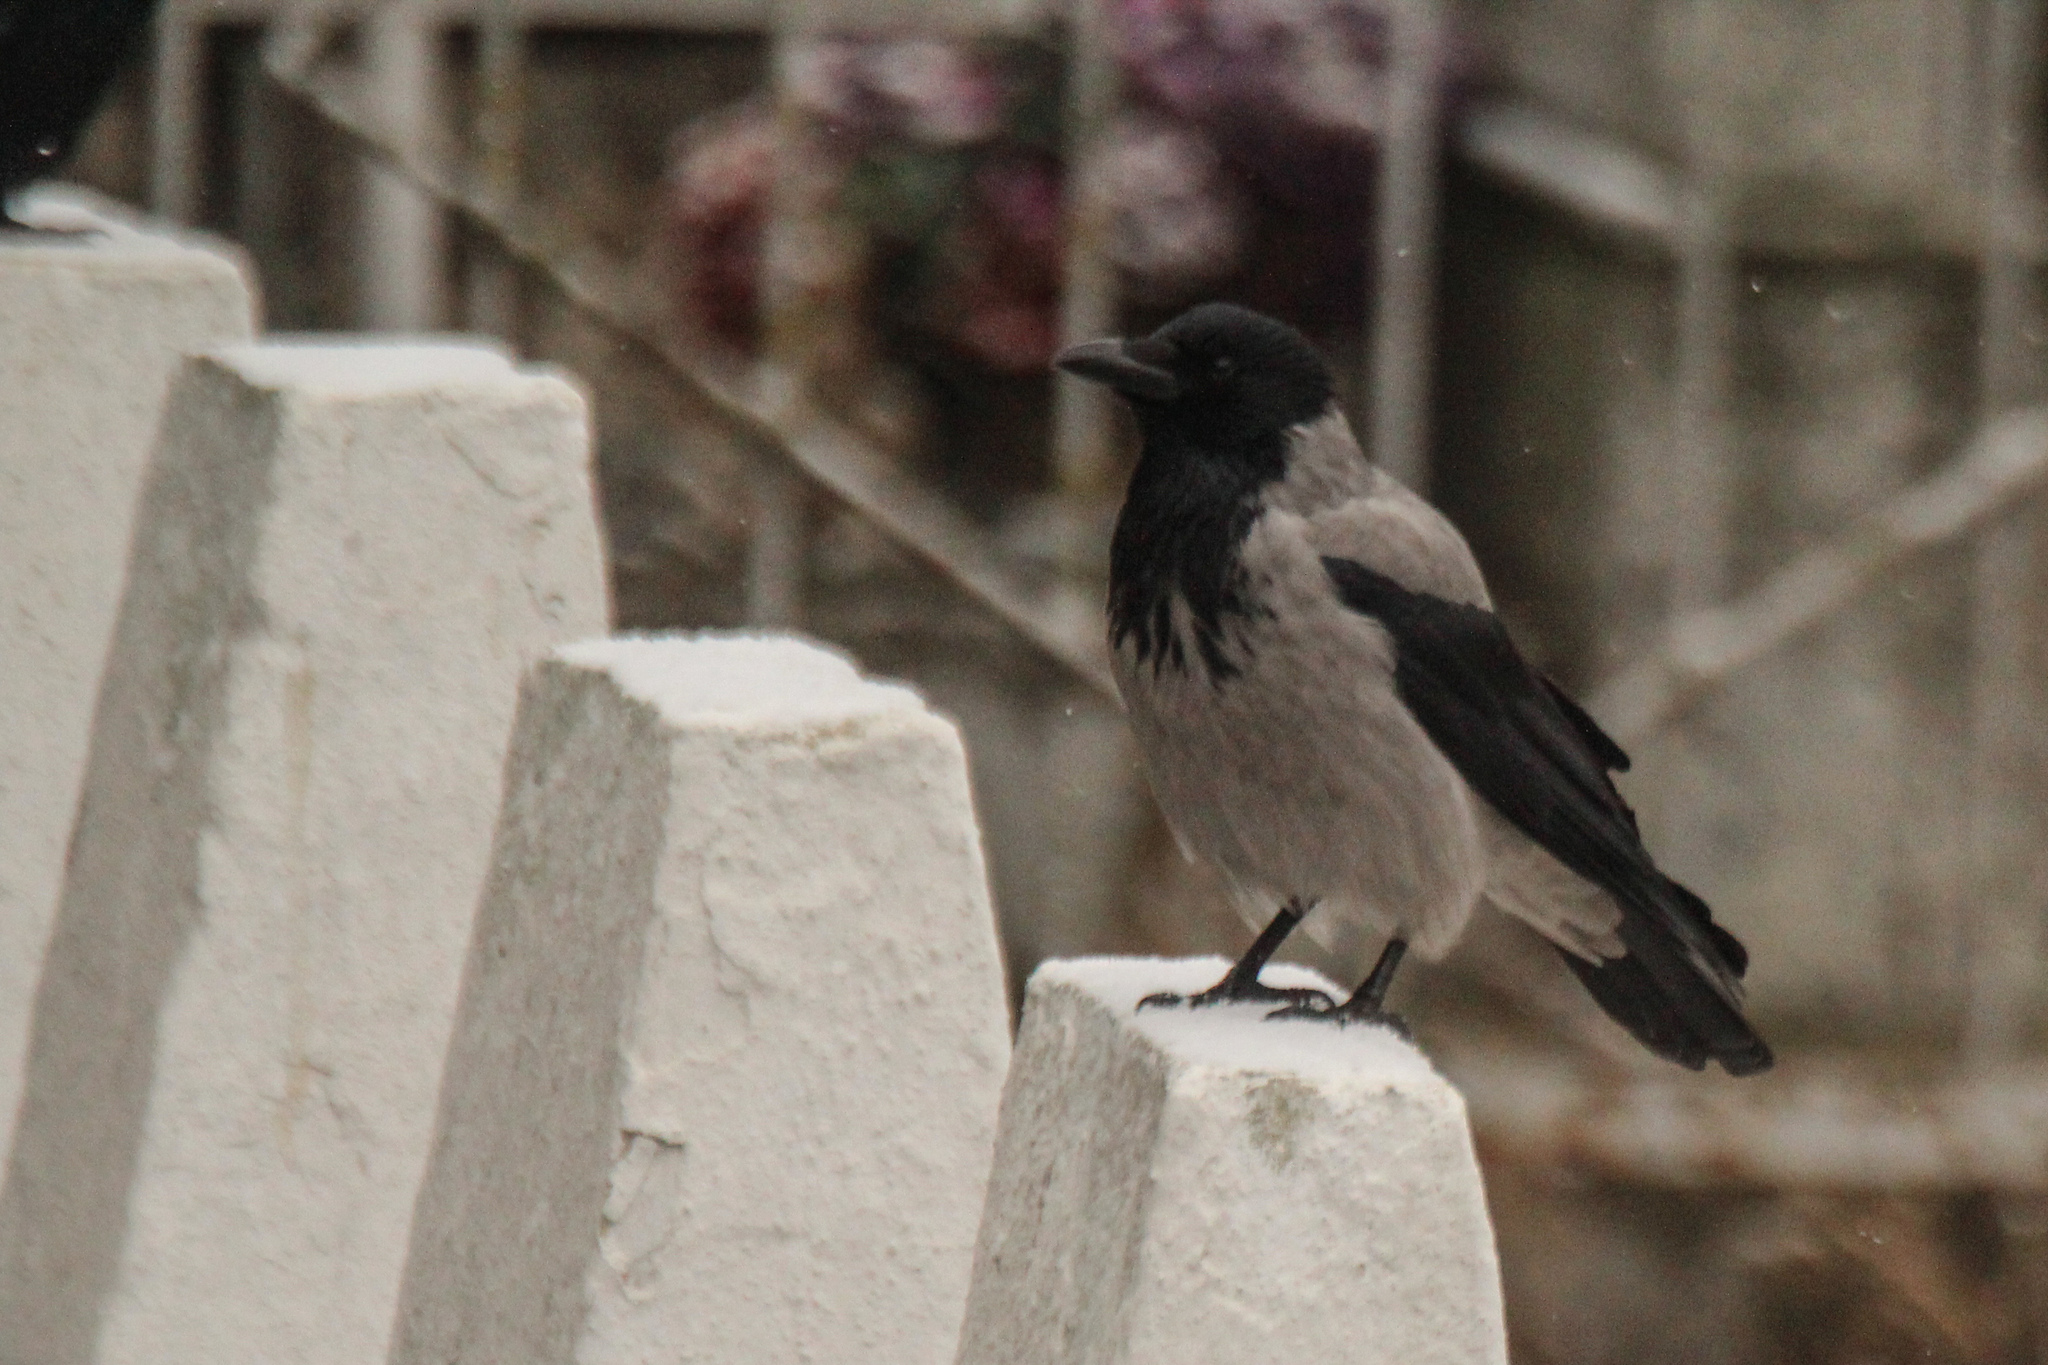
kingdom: Animalia
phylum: Chordata
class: Aves
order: Passeriformes
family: Corvidae
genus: Corvus
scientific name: Corvus cornix
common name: Hooded crow
